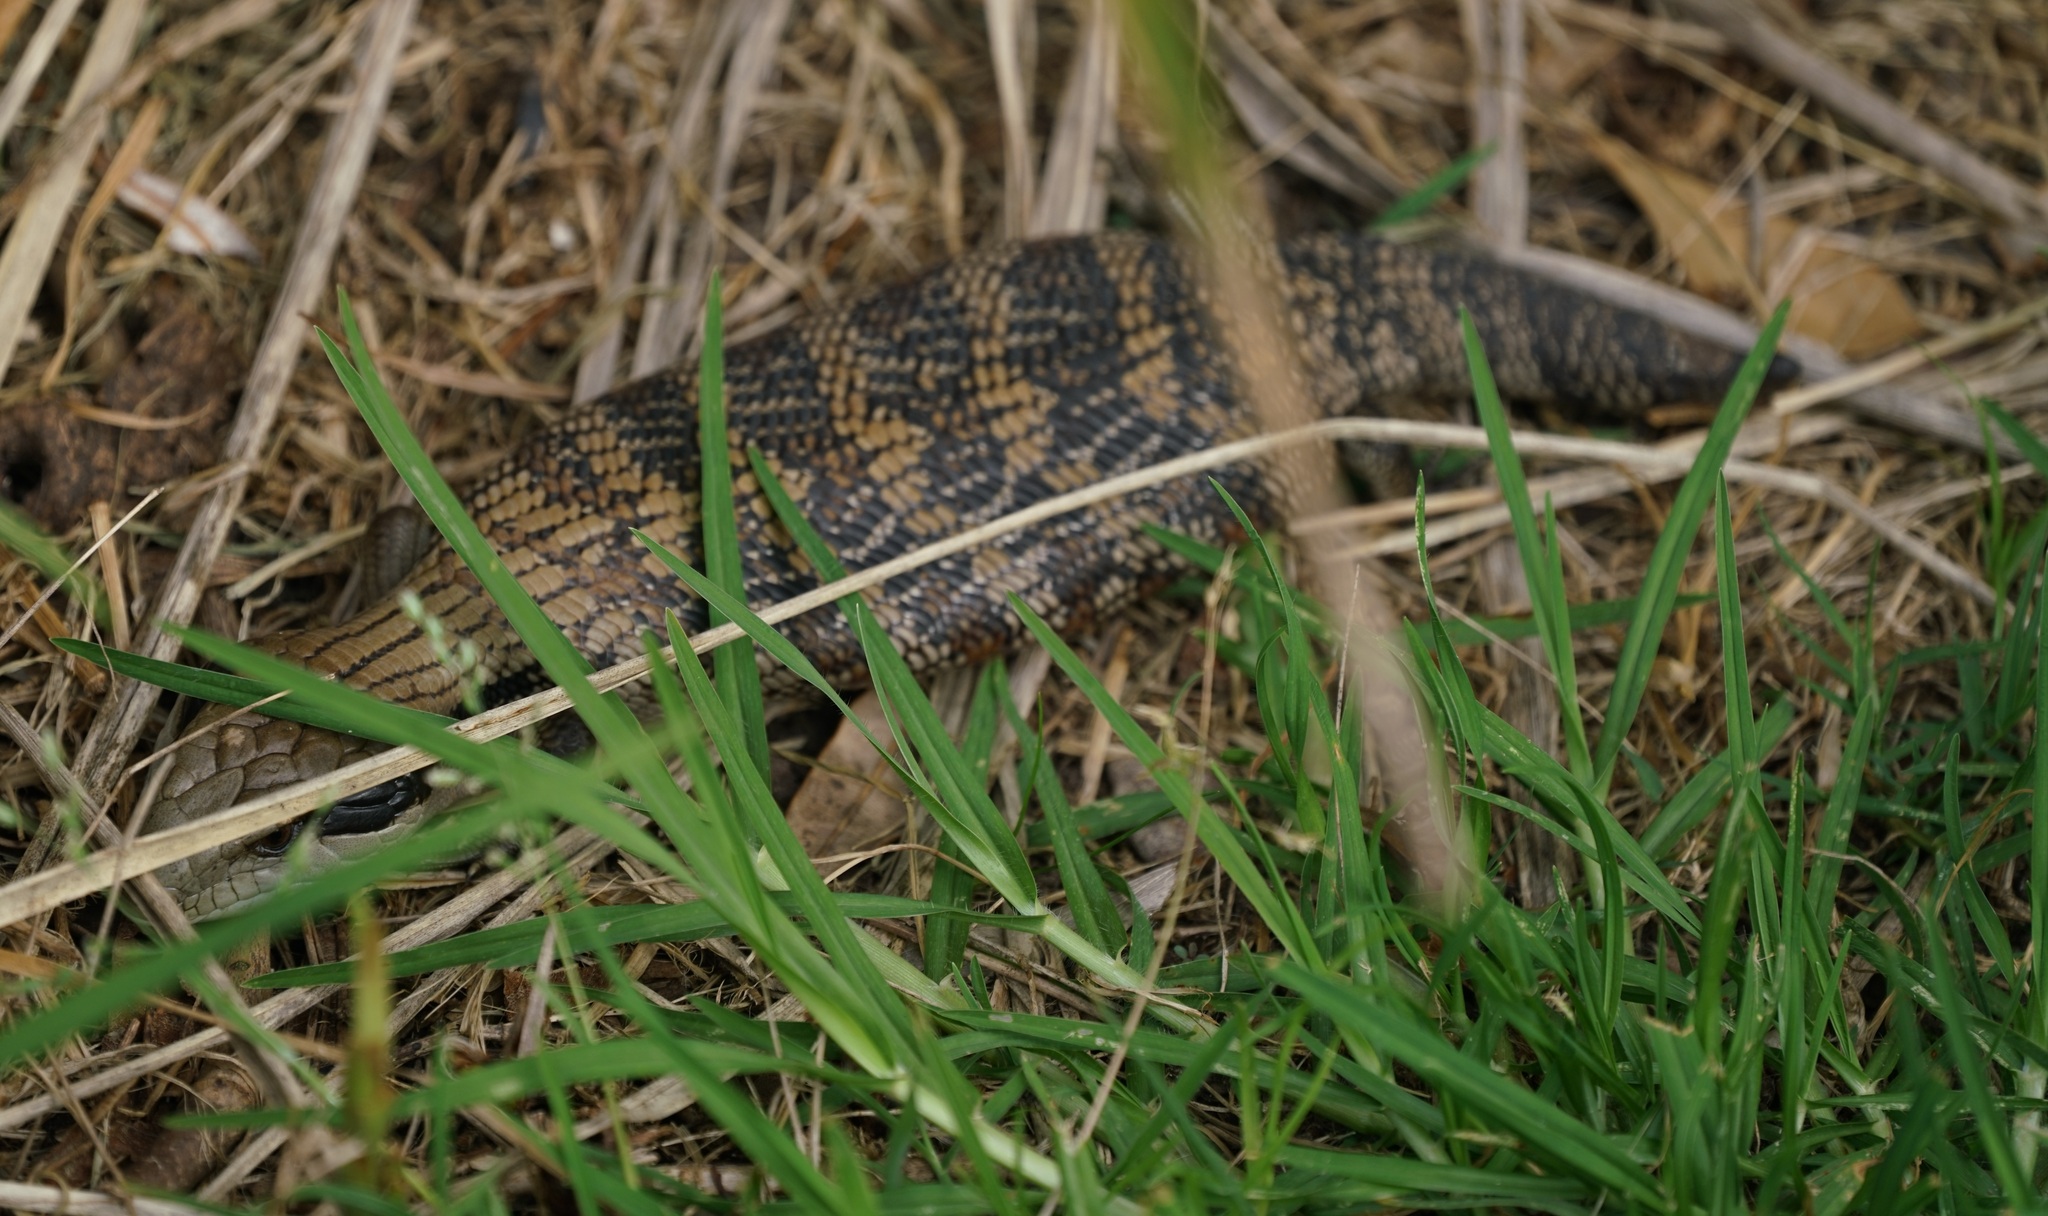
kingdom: Animalia
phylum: Chordata
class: Squamata
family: Scincidae
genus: Tiliqua
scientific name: Tiliqua scincoides
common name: Common bluetongue
